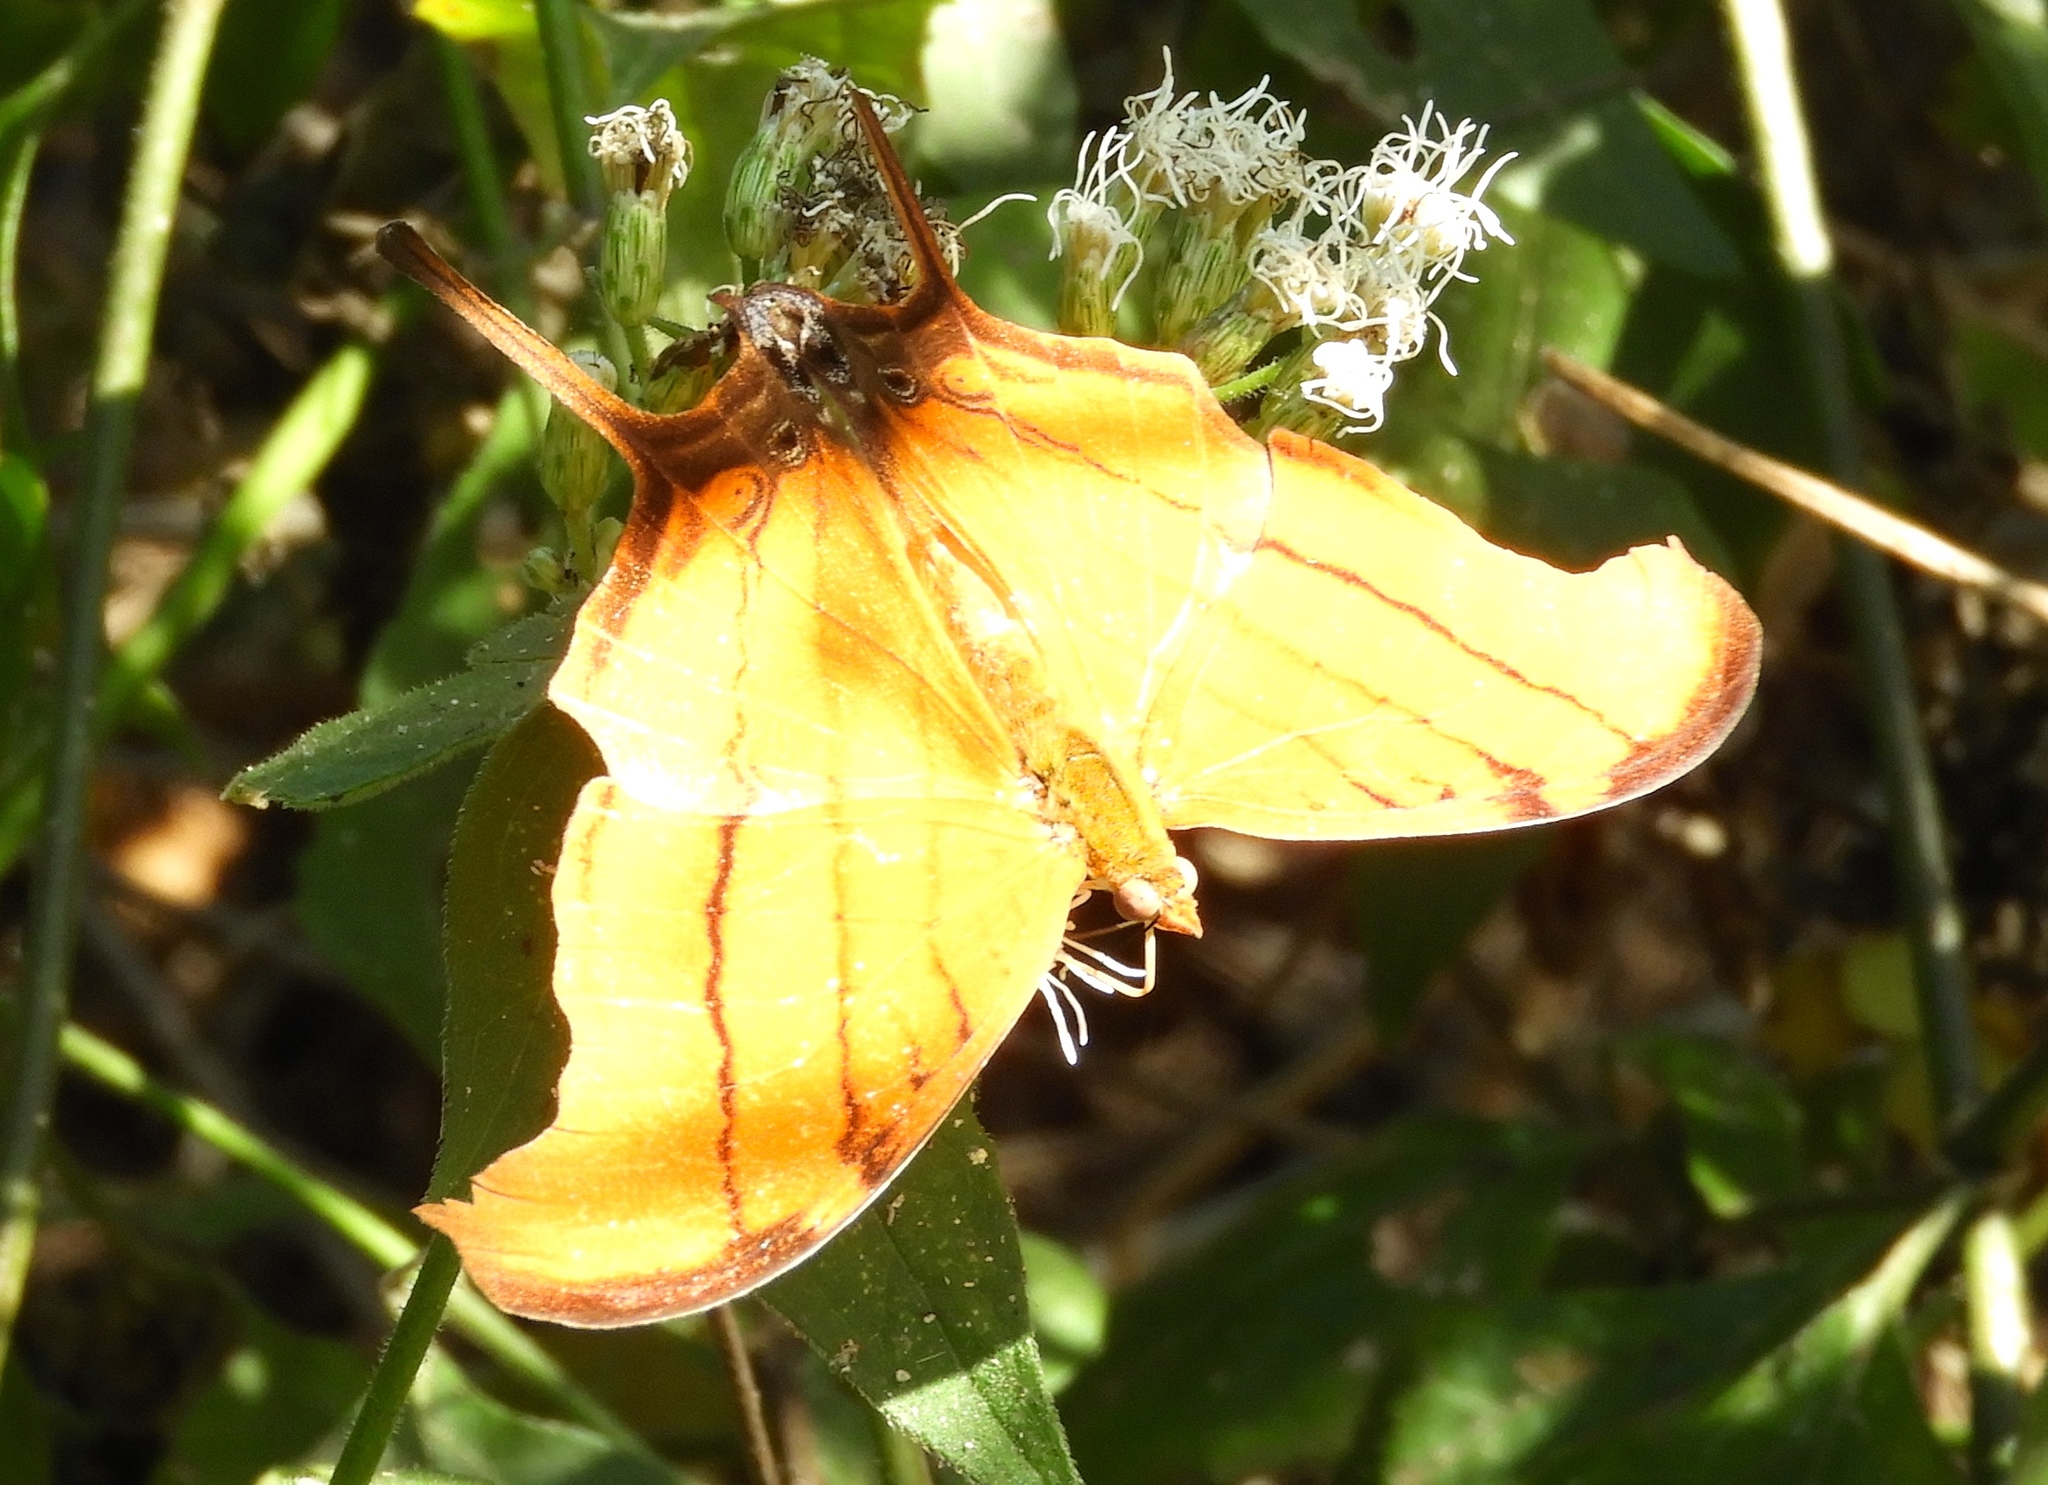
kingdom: Animalia
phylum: Arthropoda
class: Insecta
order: Lepidoptera
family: Nymphalidae
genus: Marpesia
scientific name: Marpesia petreus
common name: Red dagger wing
